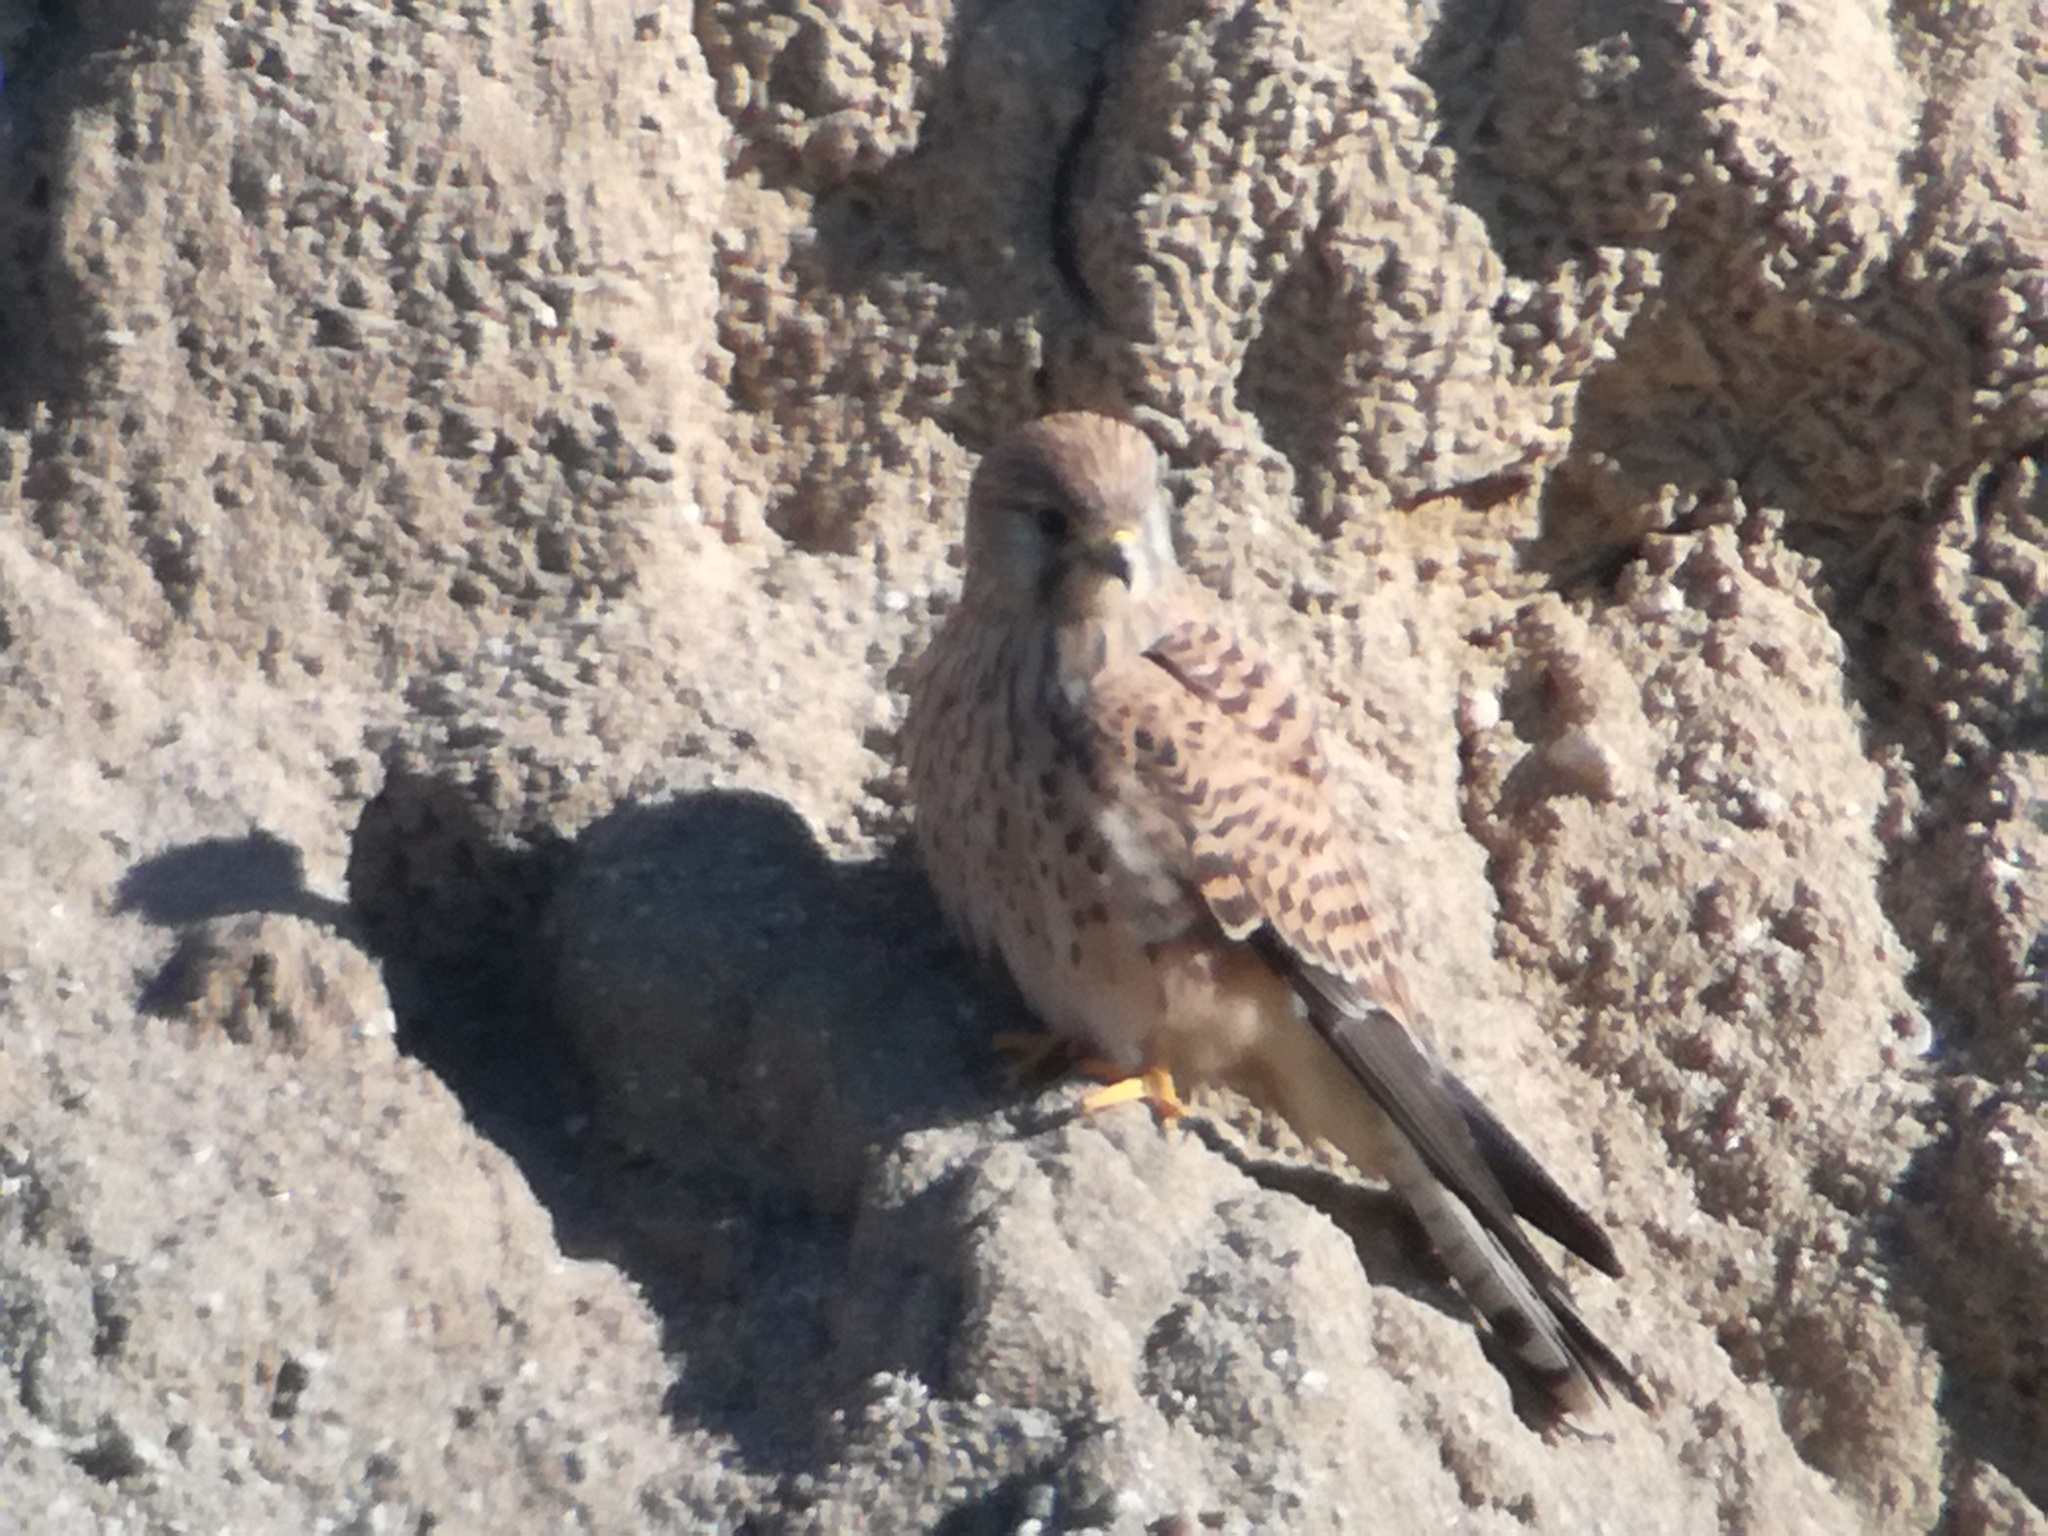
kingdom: Animalia
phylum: Chordata
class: Aves
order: Falconiformes
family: Falconidae
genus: Falco
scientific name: Falco tinnunculus
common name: Common kestrel
